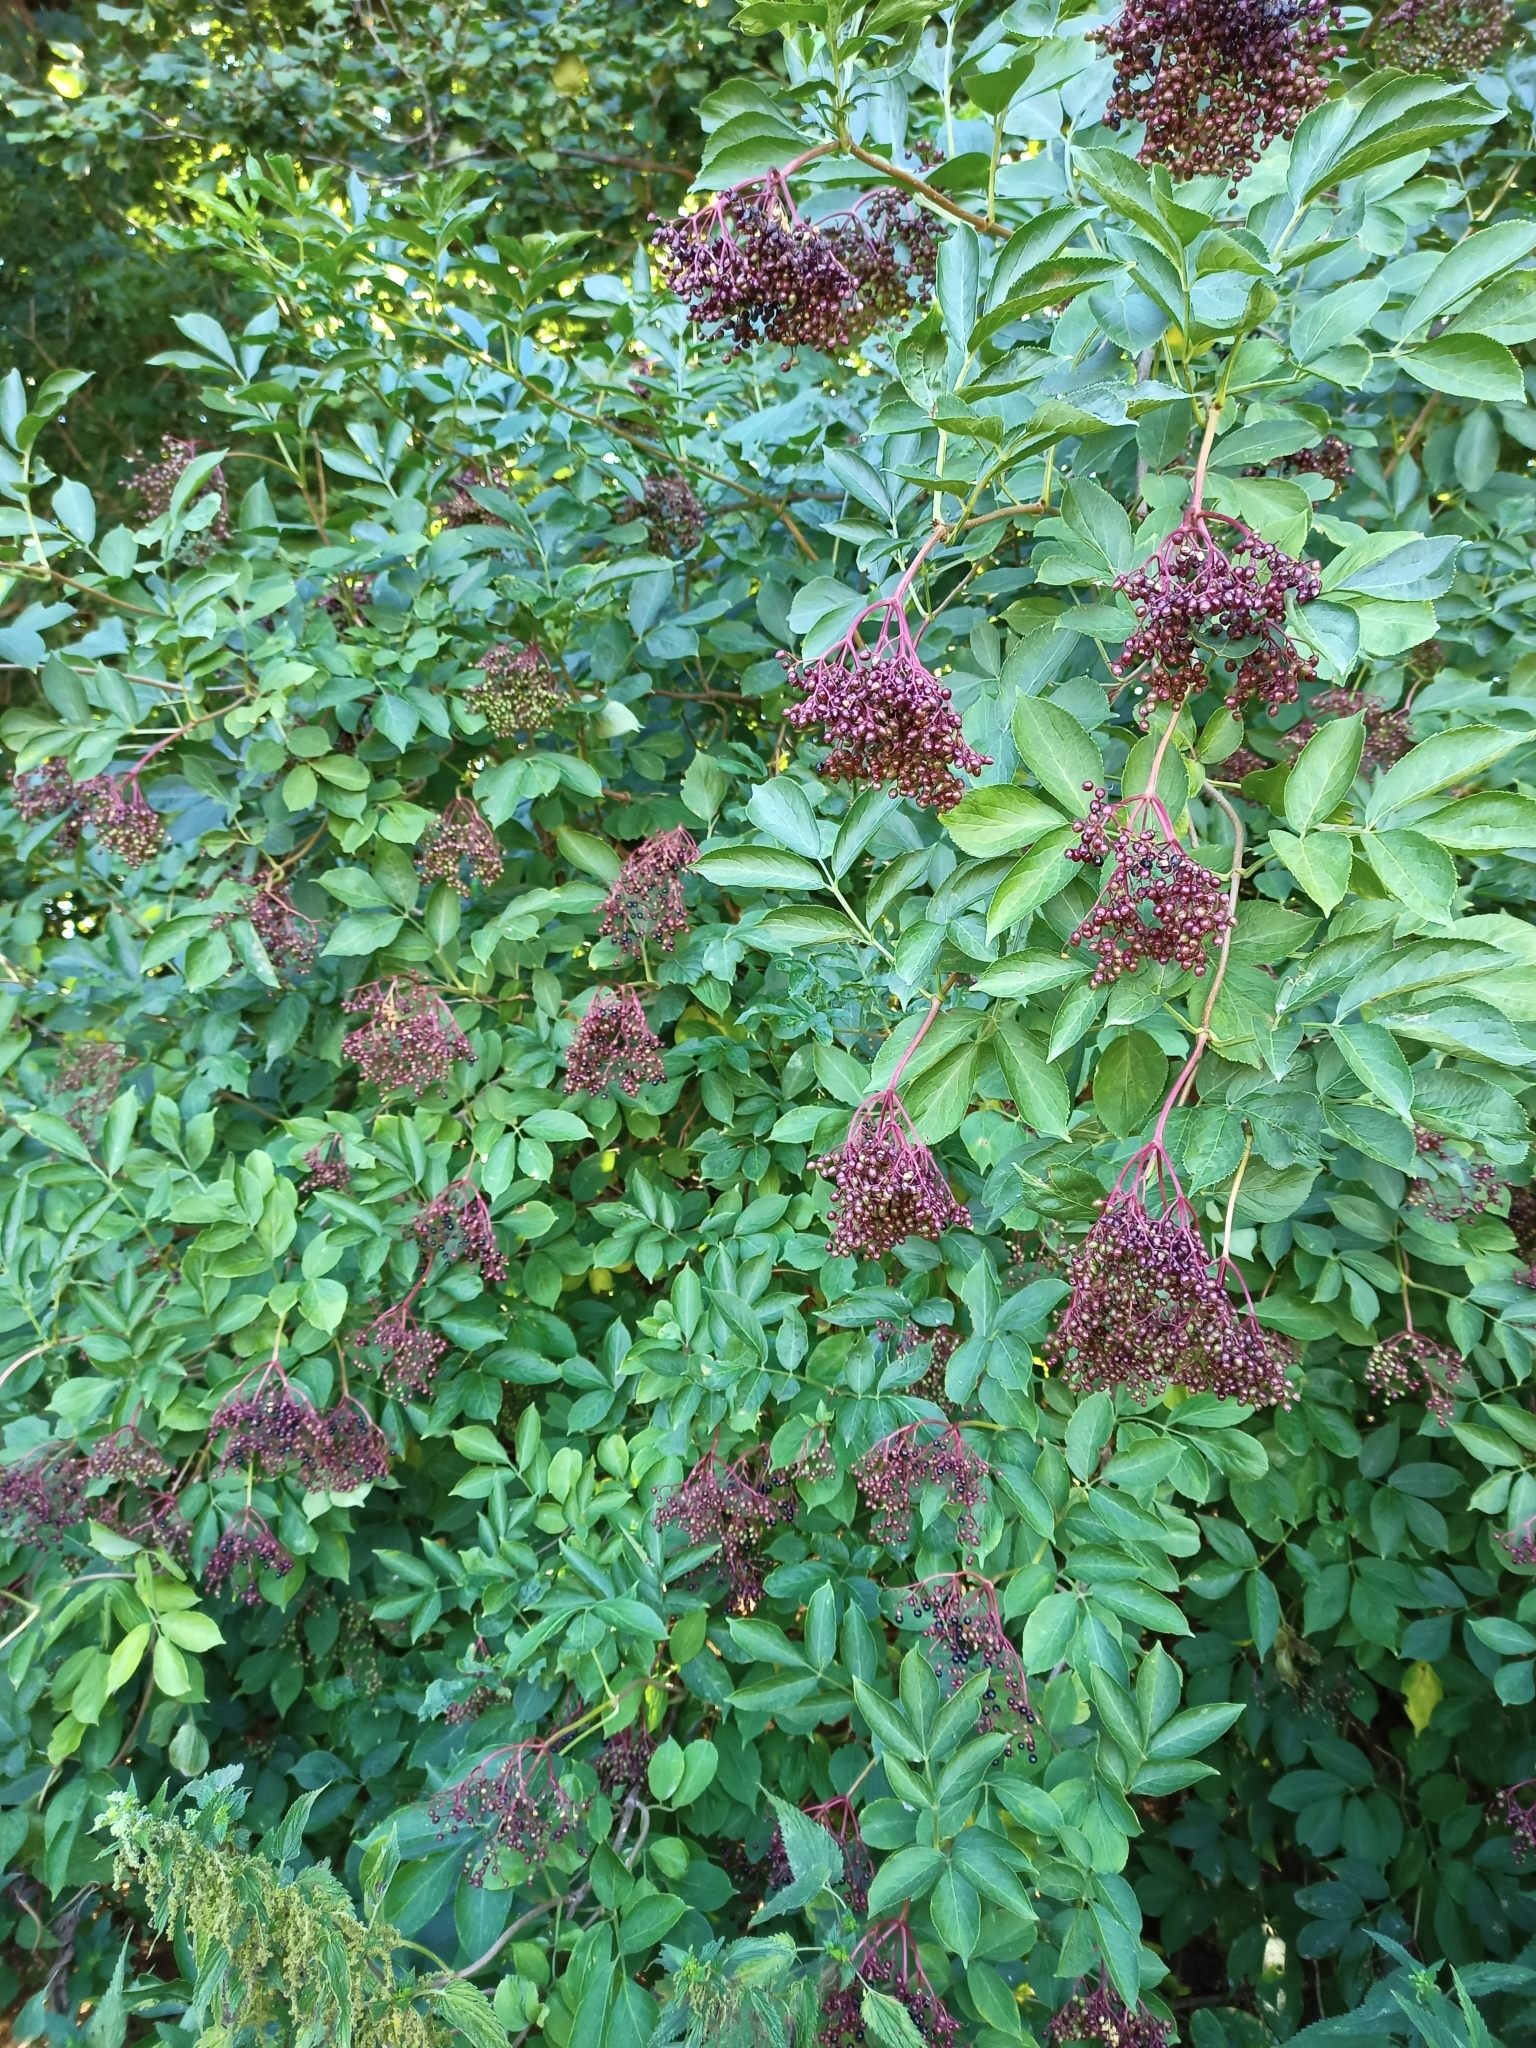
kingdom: Plantae
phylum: Tracheophyta
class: Magnoliopsida
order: Dipsacales
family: Viburnaceae
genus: Sambucus
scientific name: Sambucus nigra
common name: Elder
